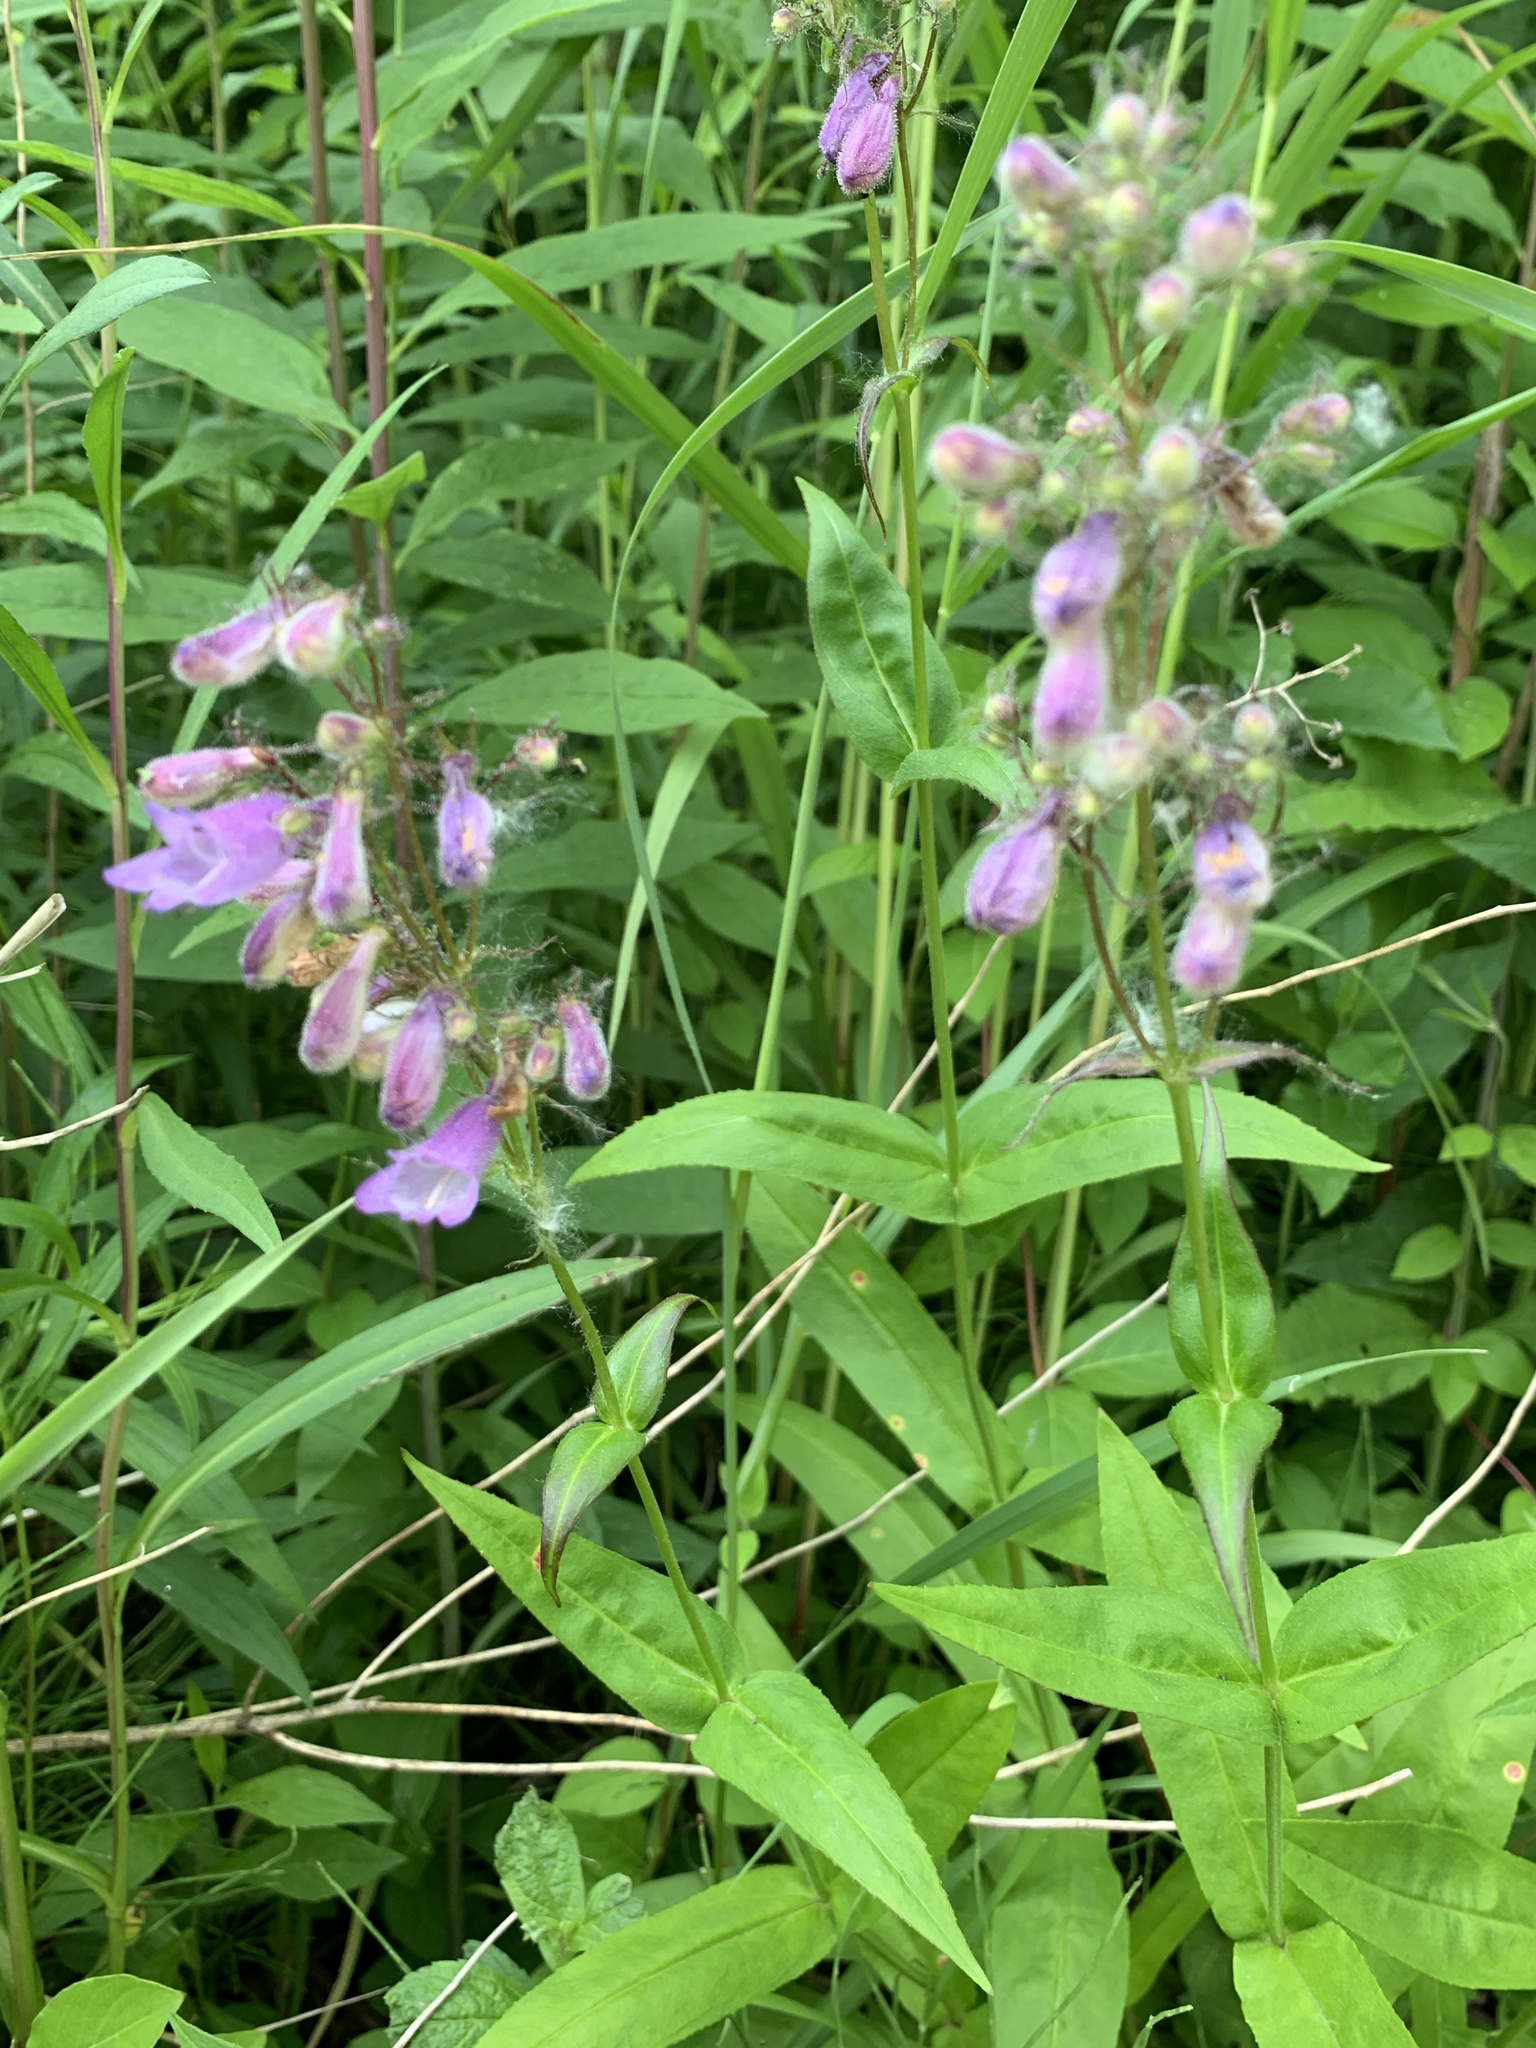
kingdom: Plantae
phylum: Tracheophyta
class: Magnoliopsida
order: Lamiales
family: Plantaginaceae
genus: Penstemon
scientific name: Penstemon calycosus
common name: Long-sepal beardtongue
